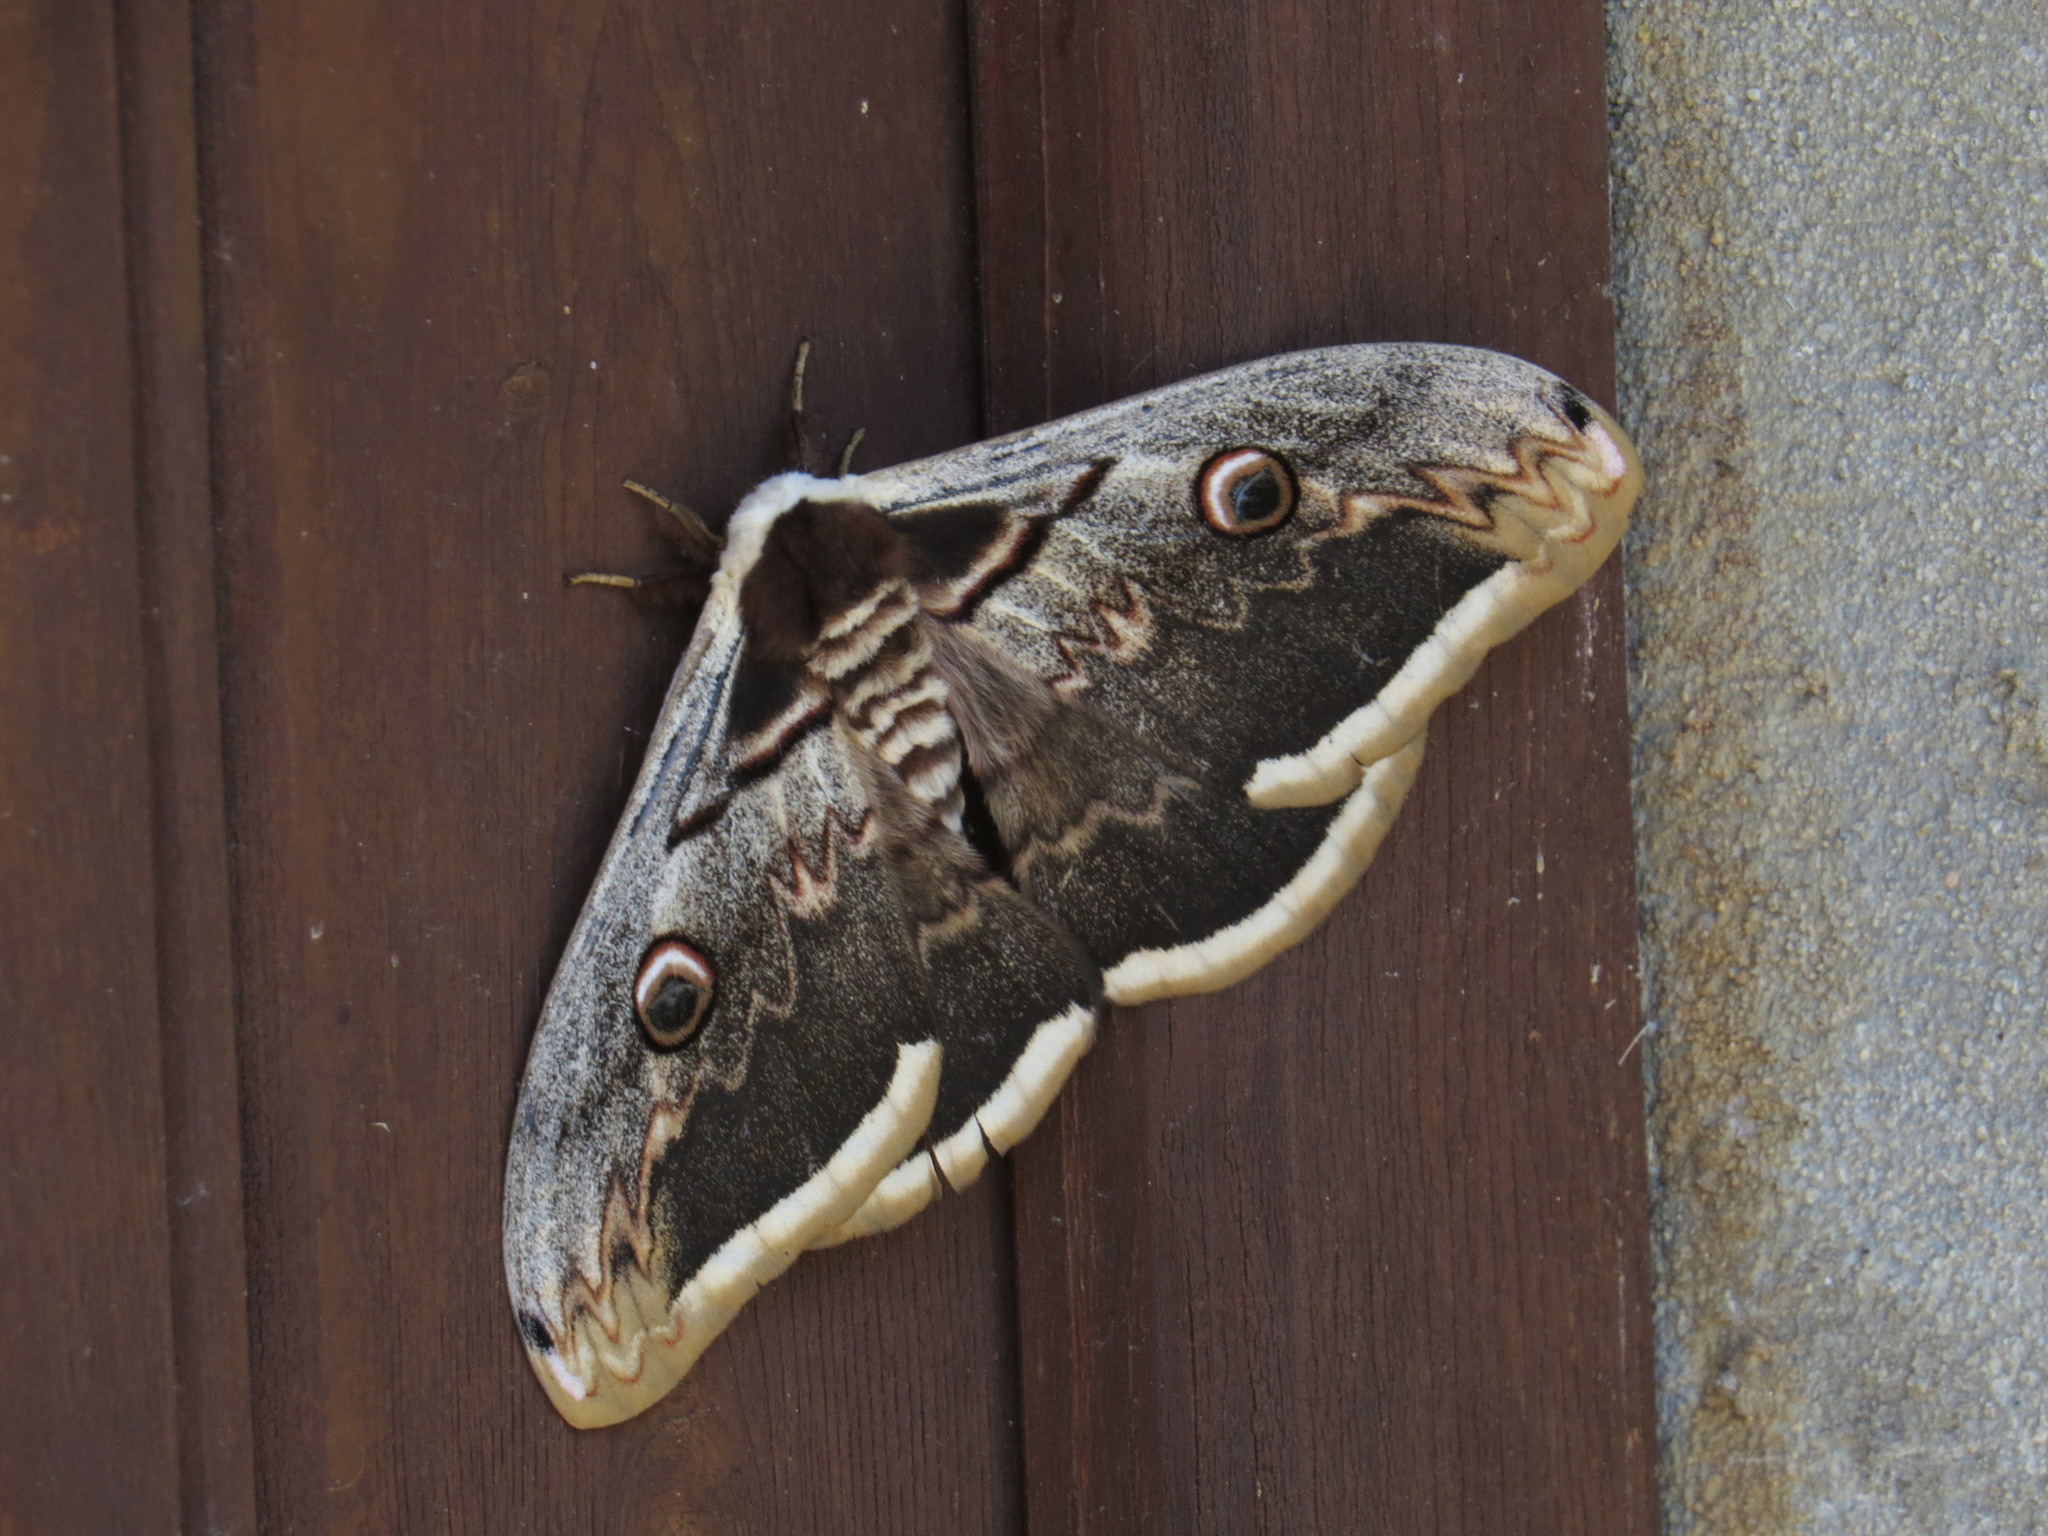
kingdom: Animalia
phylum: Arthropoda
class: Insecta
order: Lepidoptera
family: Saturniidae
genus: Saturnia
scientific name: Saturnia pyri
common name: Great peacock moth
